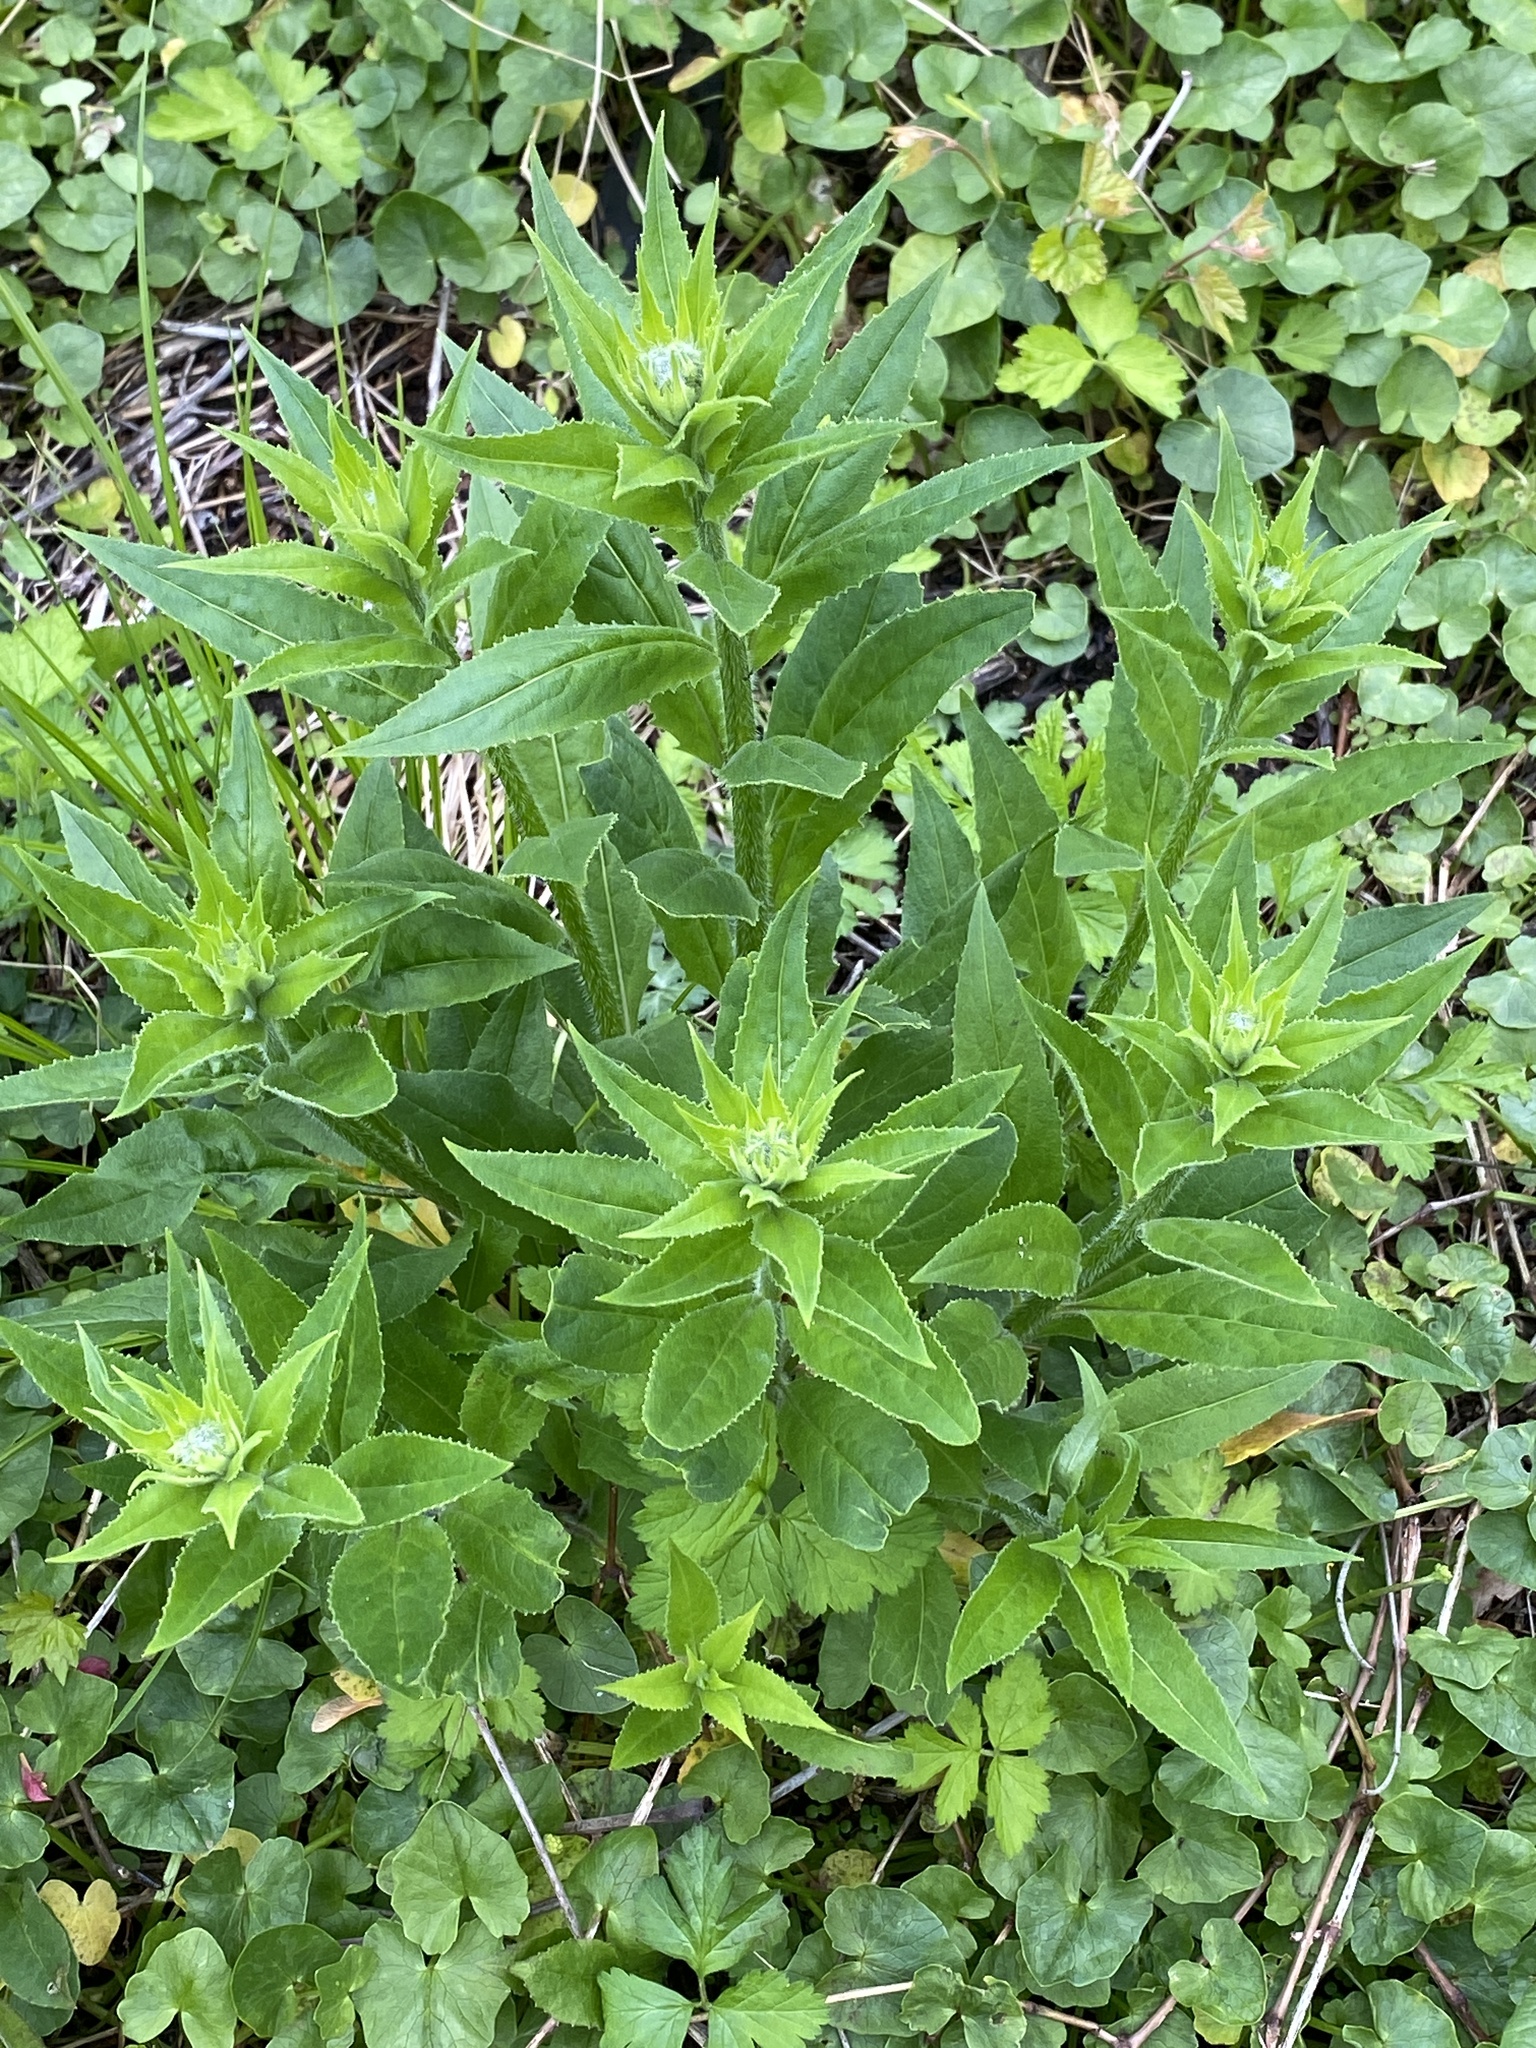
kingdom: Plantae
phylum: Tracheophyta
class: Magnoliopsida
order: Brassicales
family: Brassicaceae
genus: Hesperis
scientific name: Hesperis matronalis
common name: Dame's-violet
